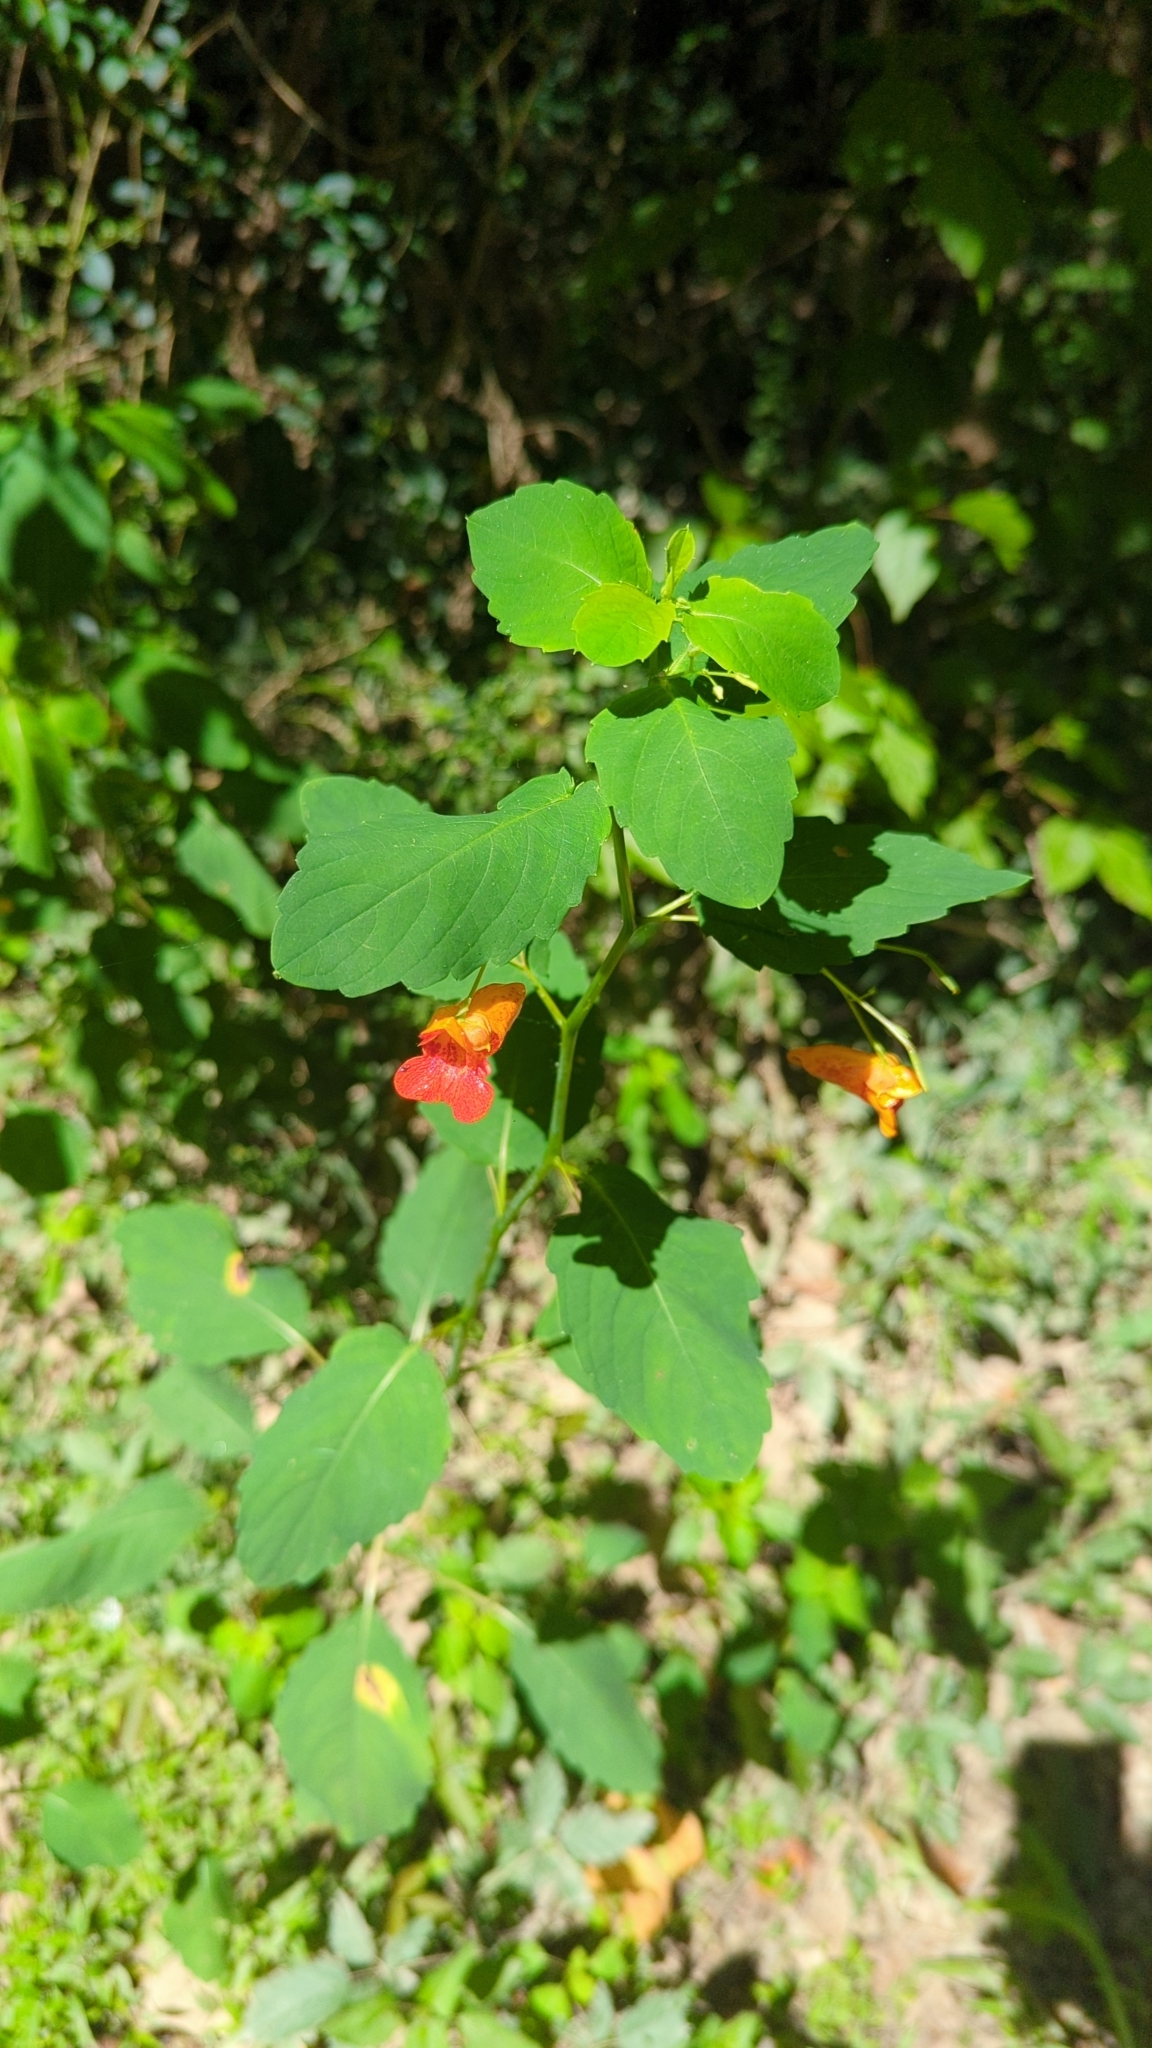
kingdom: Plantae
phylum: Tracheophyta
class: Magnoliopsida
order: Ericales
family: Balsaminaceae
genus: Impatiens
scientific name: Impatiens capensis
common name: Orange balsam
